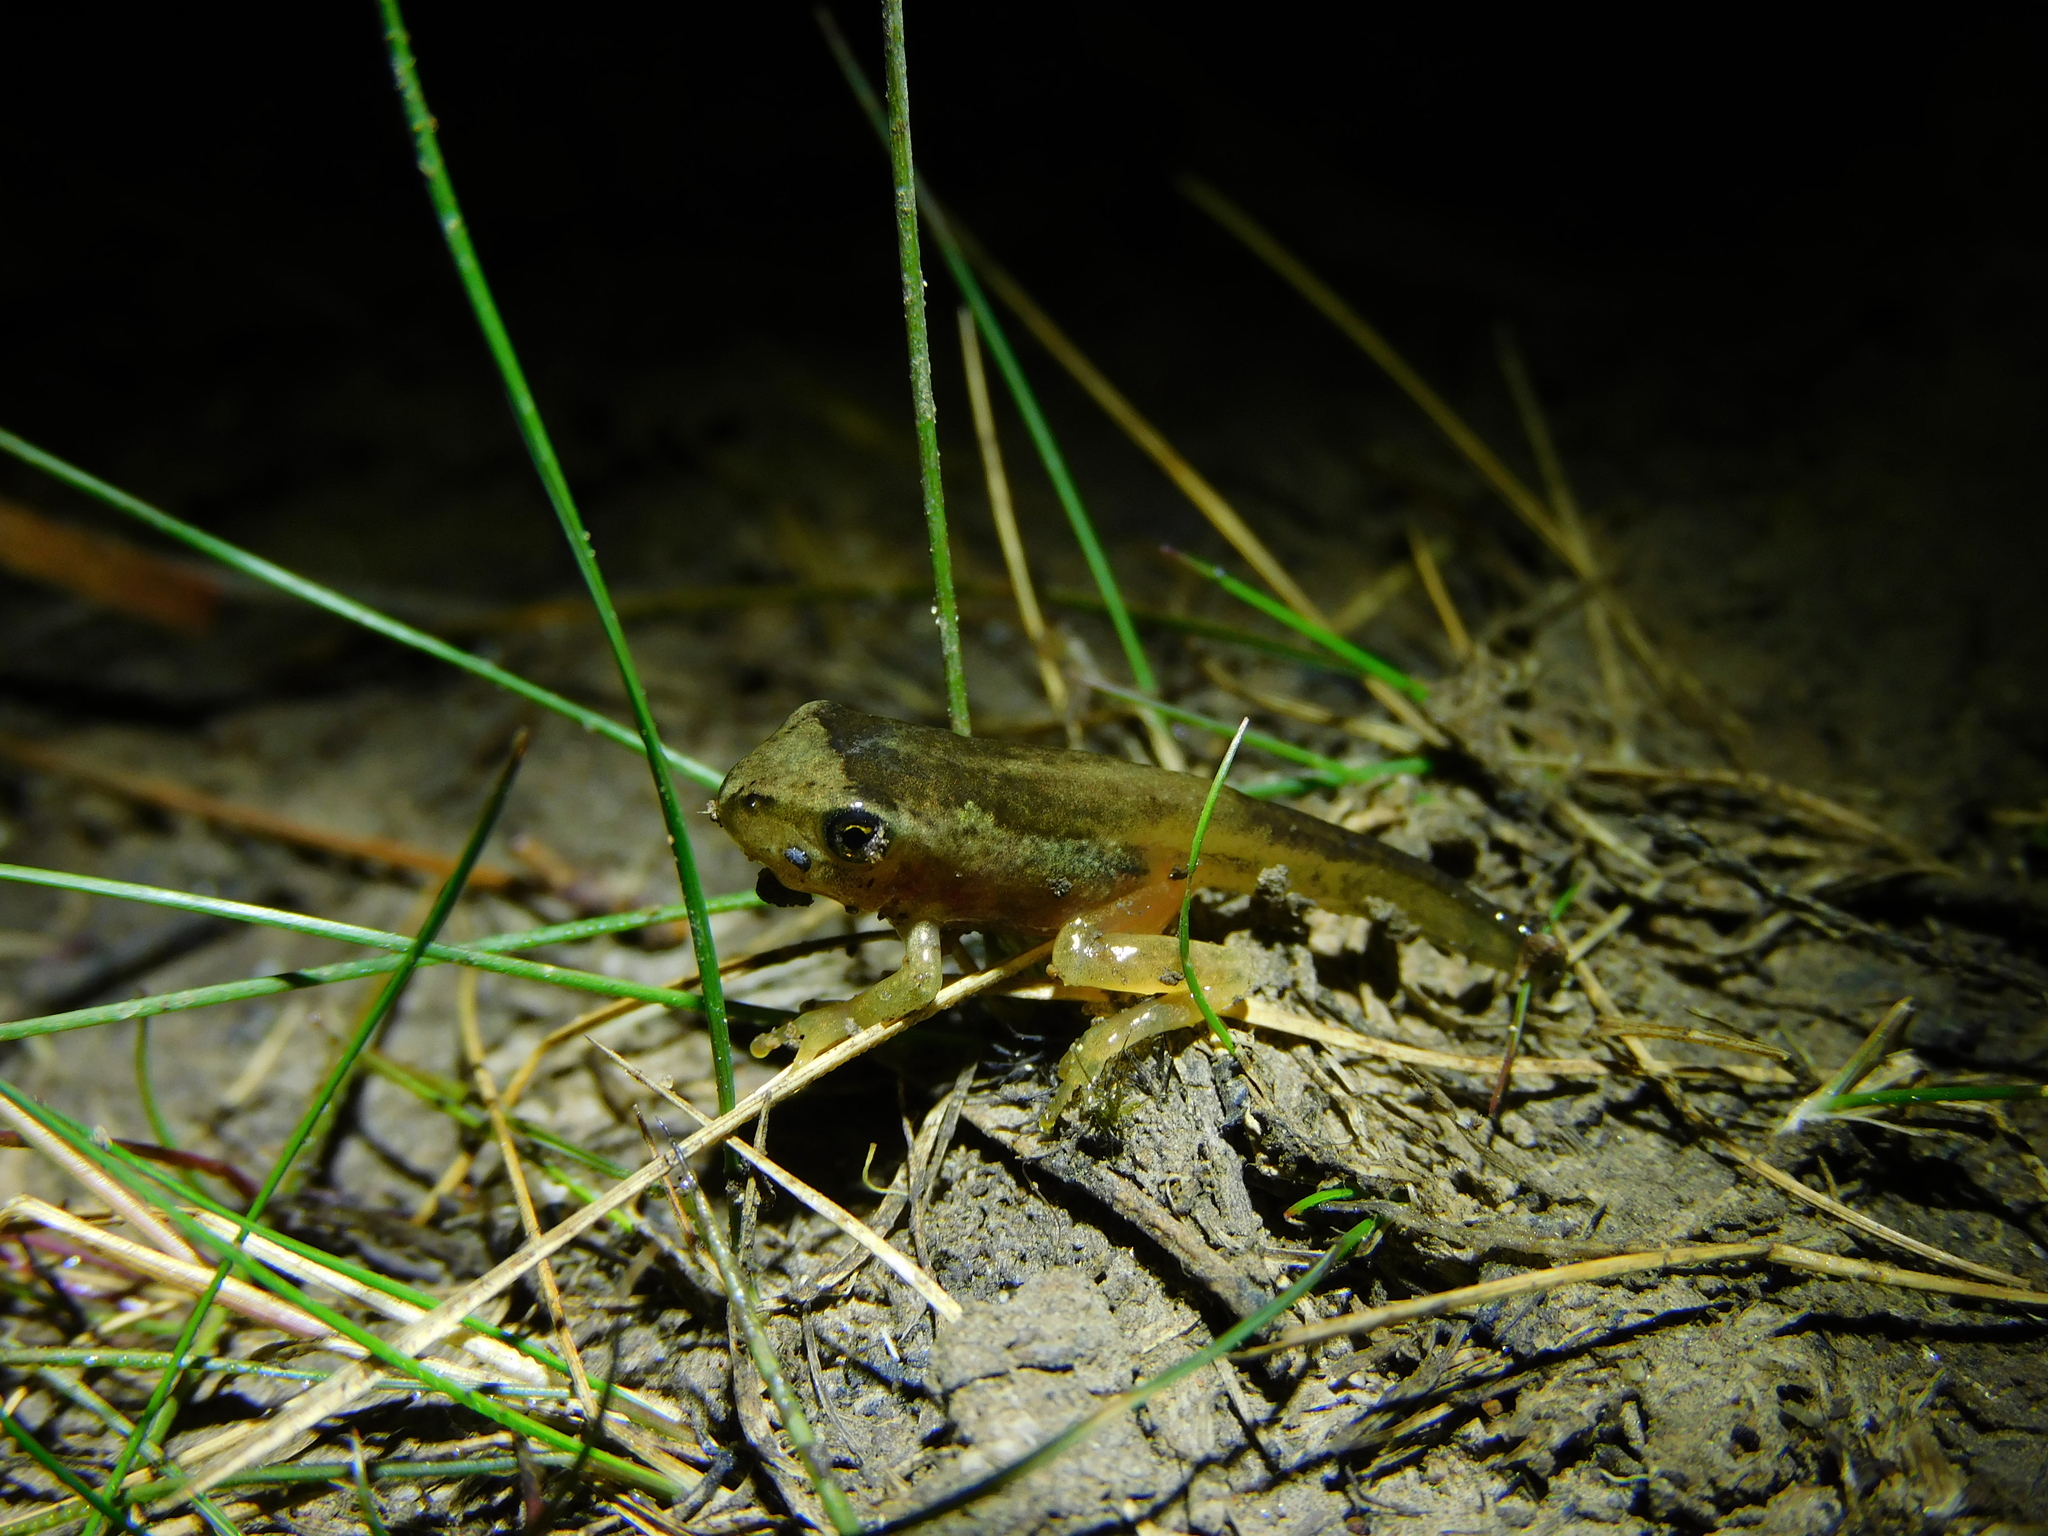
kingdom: Animalia
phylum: Chordata
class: Amphibia
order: Anura
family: Pelodryadidae
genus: Litoria
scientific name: Litoria ewingii
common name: Southern brown tree frog
